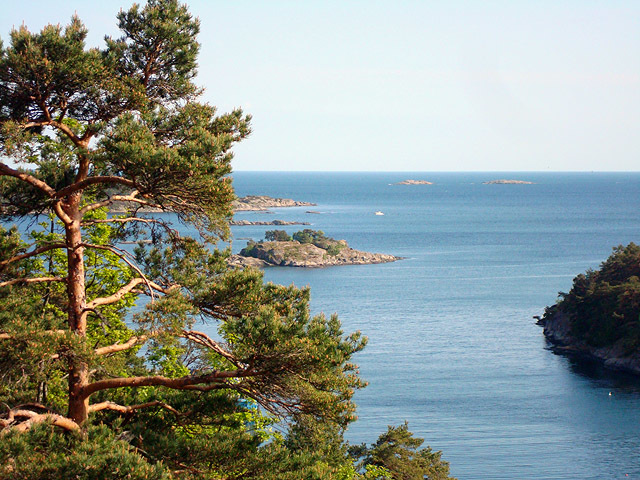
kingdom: Plantae
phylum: Tracheophyta
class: Pinopsida
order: Pinales
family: Pinaceae
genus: Pinus
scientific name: Pinus sylvestris
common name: Scots pine
